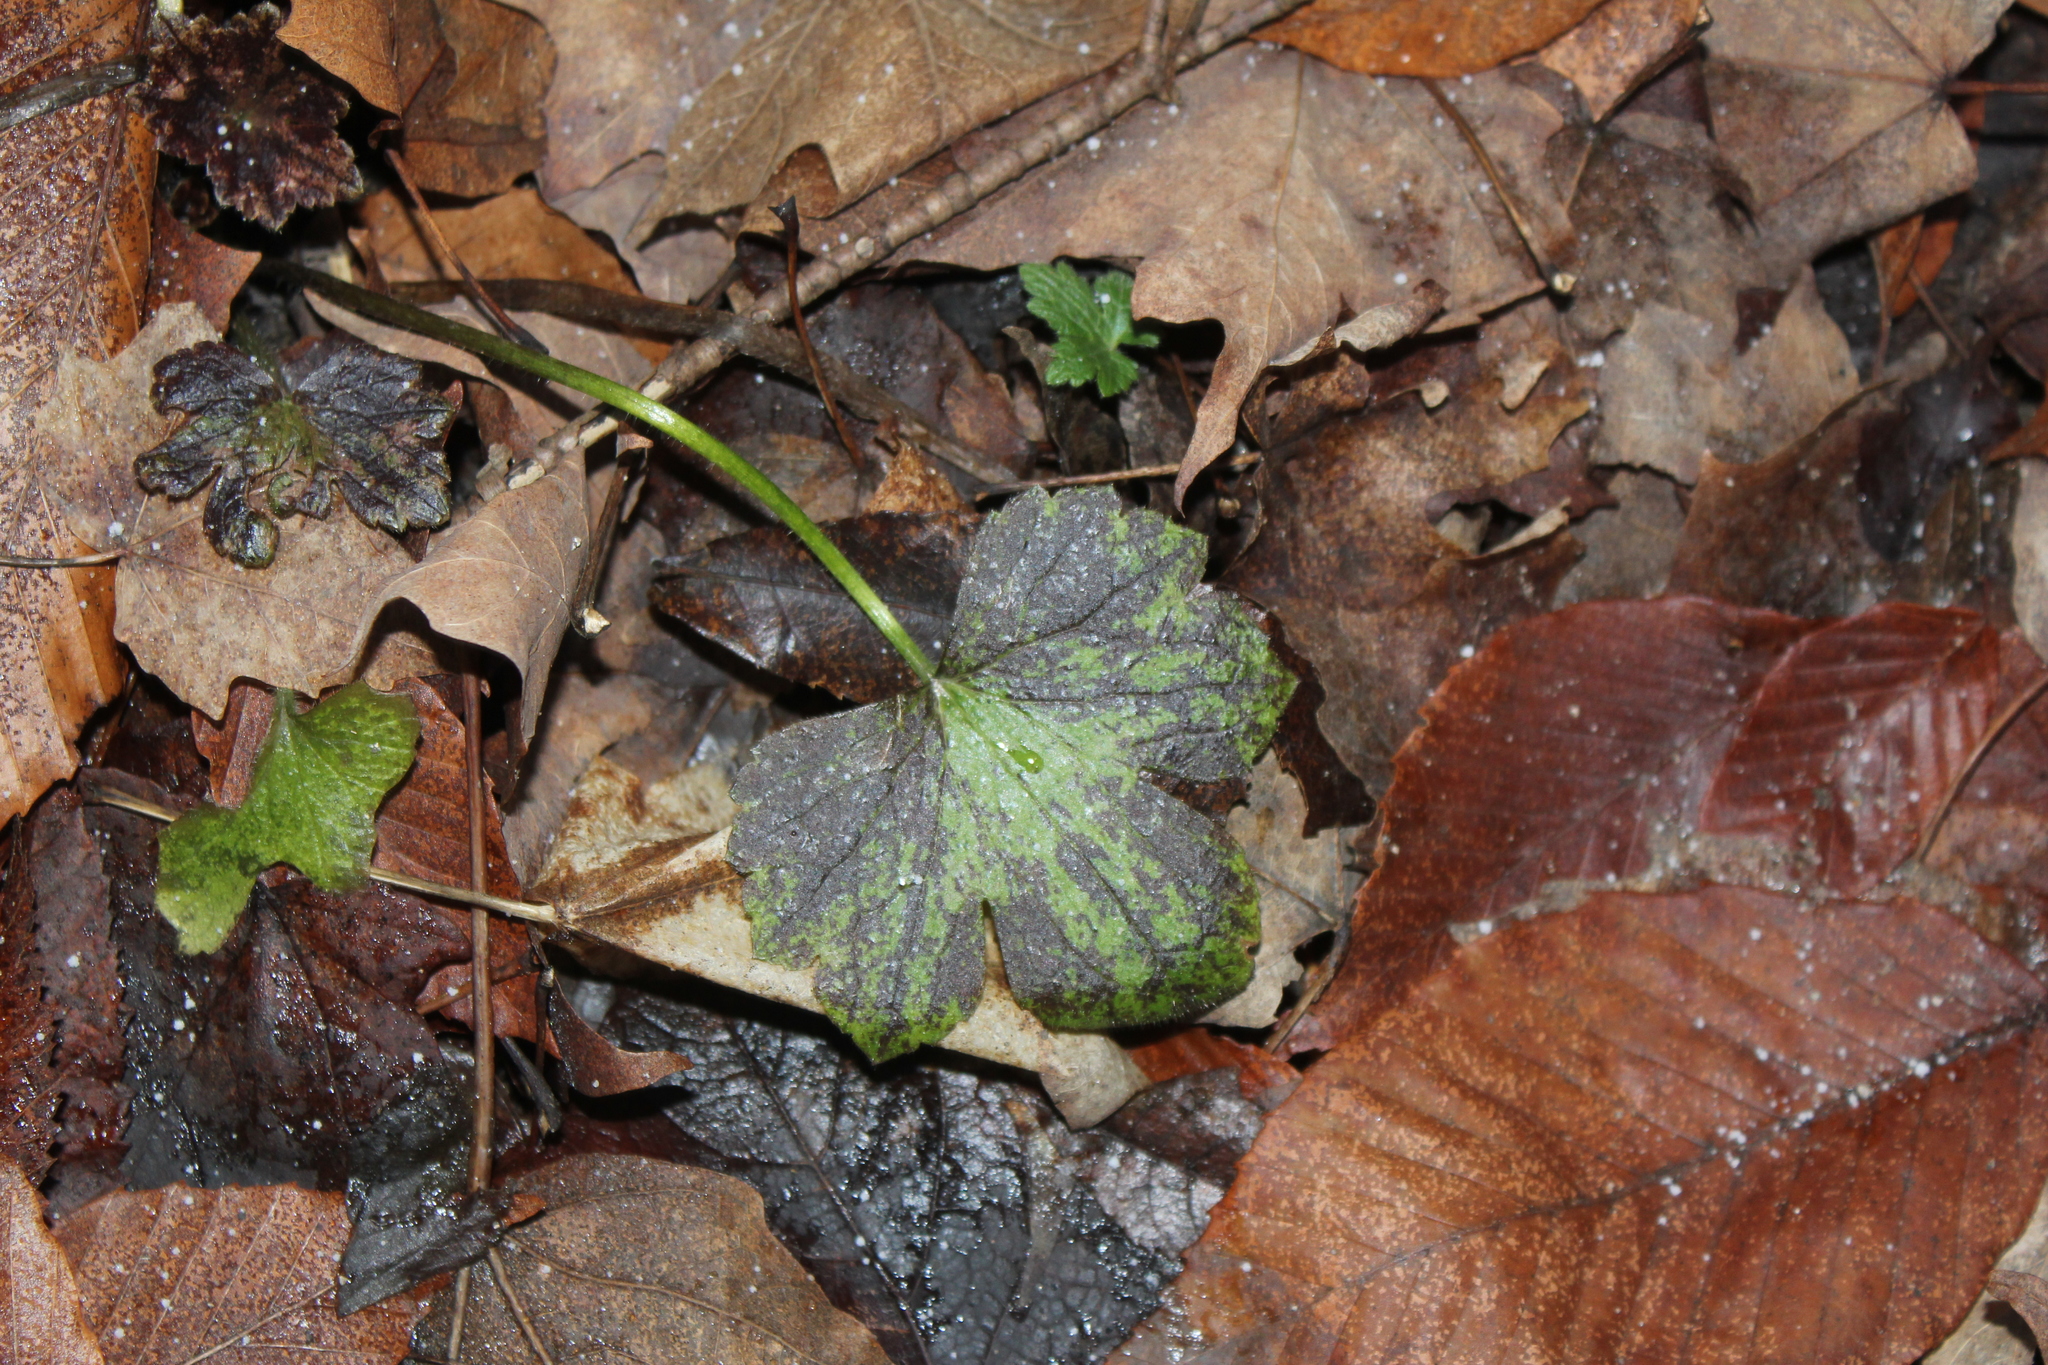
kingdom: Plantae
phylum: Tracheophyta
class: Magnoliopsida
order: Ranunculales
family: Ranunculaceae
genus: Ranunculus
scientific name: Ranunculus recurvatus
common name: Blisterwort
